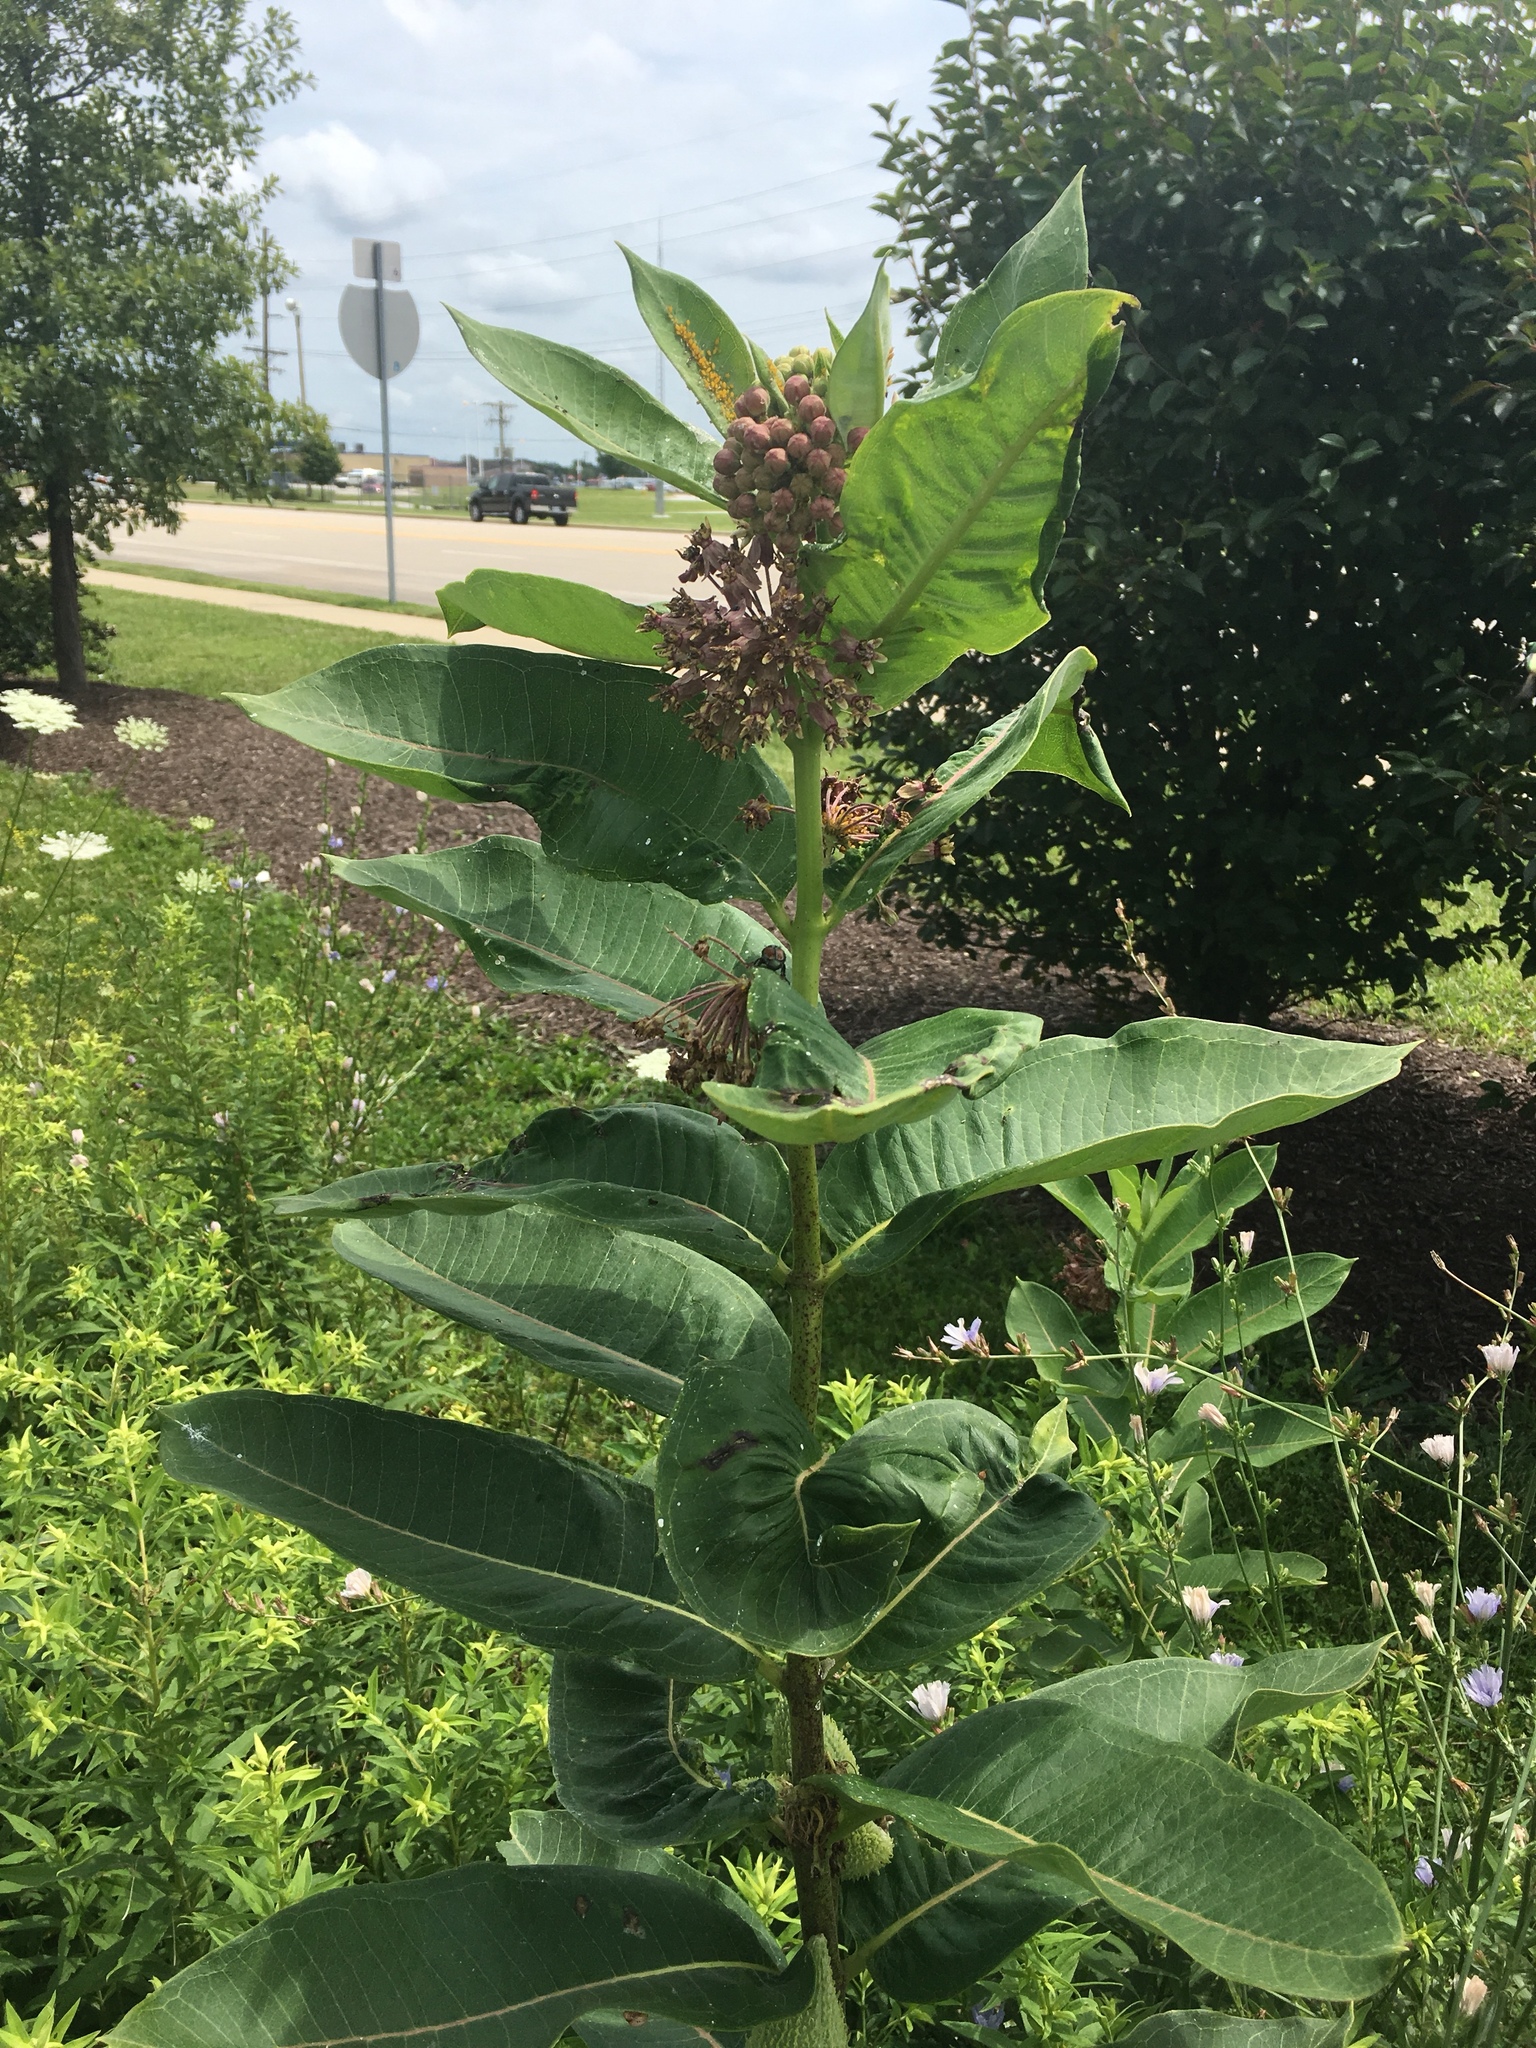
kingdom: Plantae
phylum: Tracheophyta
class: Magnoliopsida
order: Gentianales
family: Apocynaceae
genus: Asclepias
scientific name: Asclepias syriaca
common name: Common milkweed
